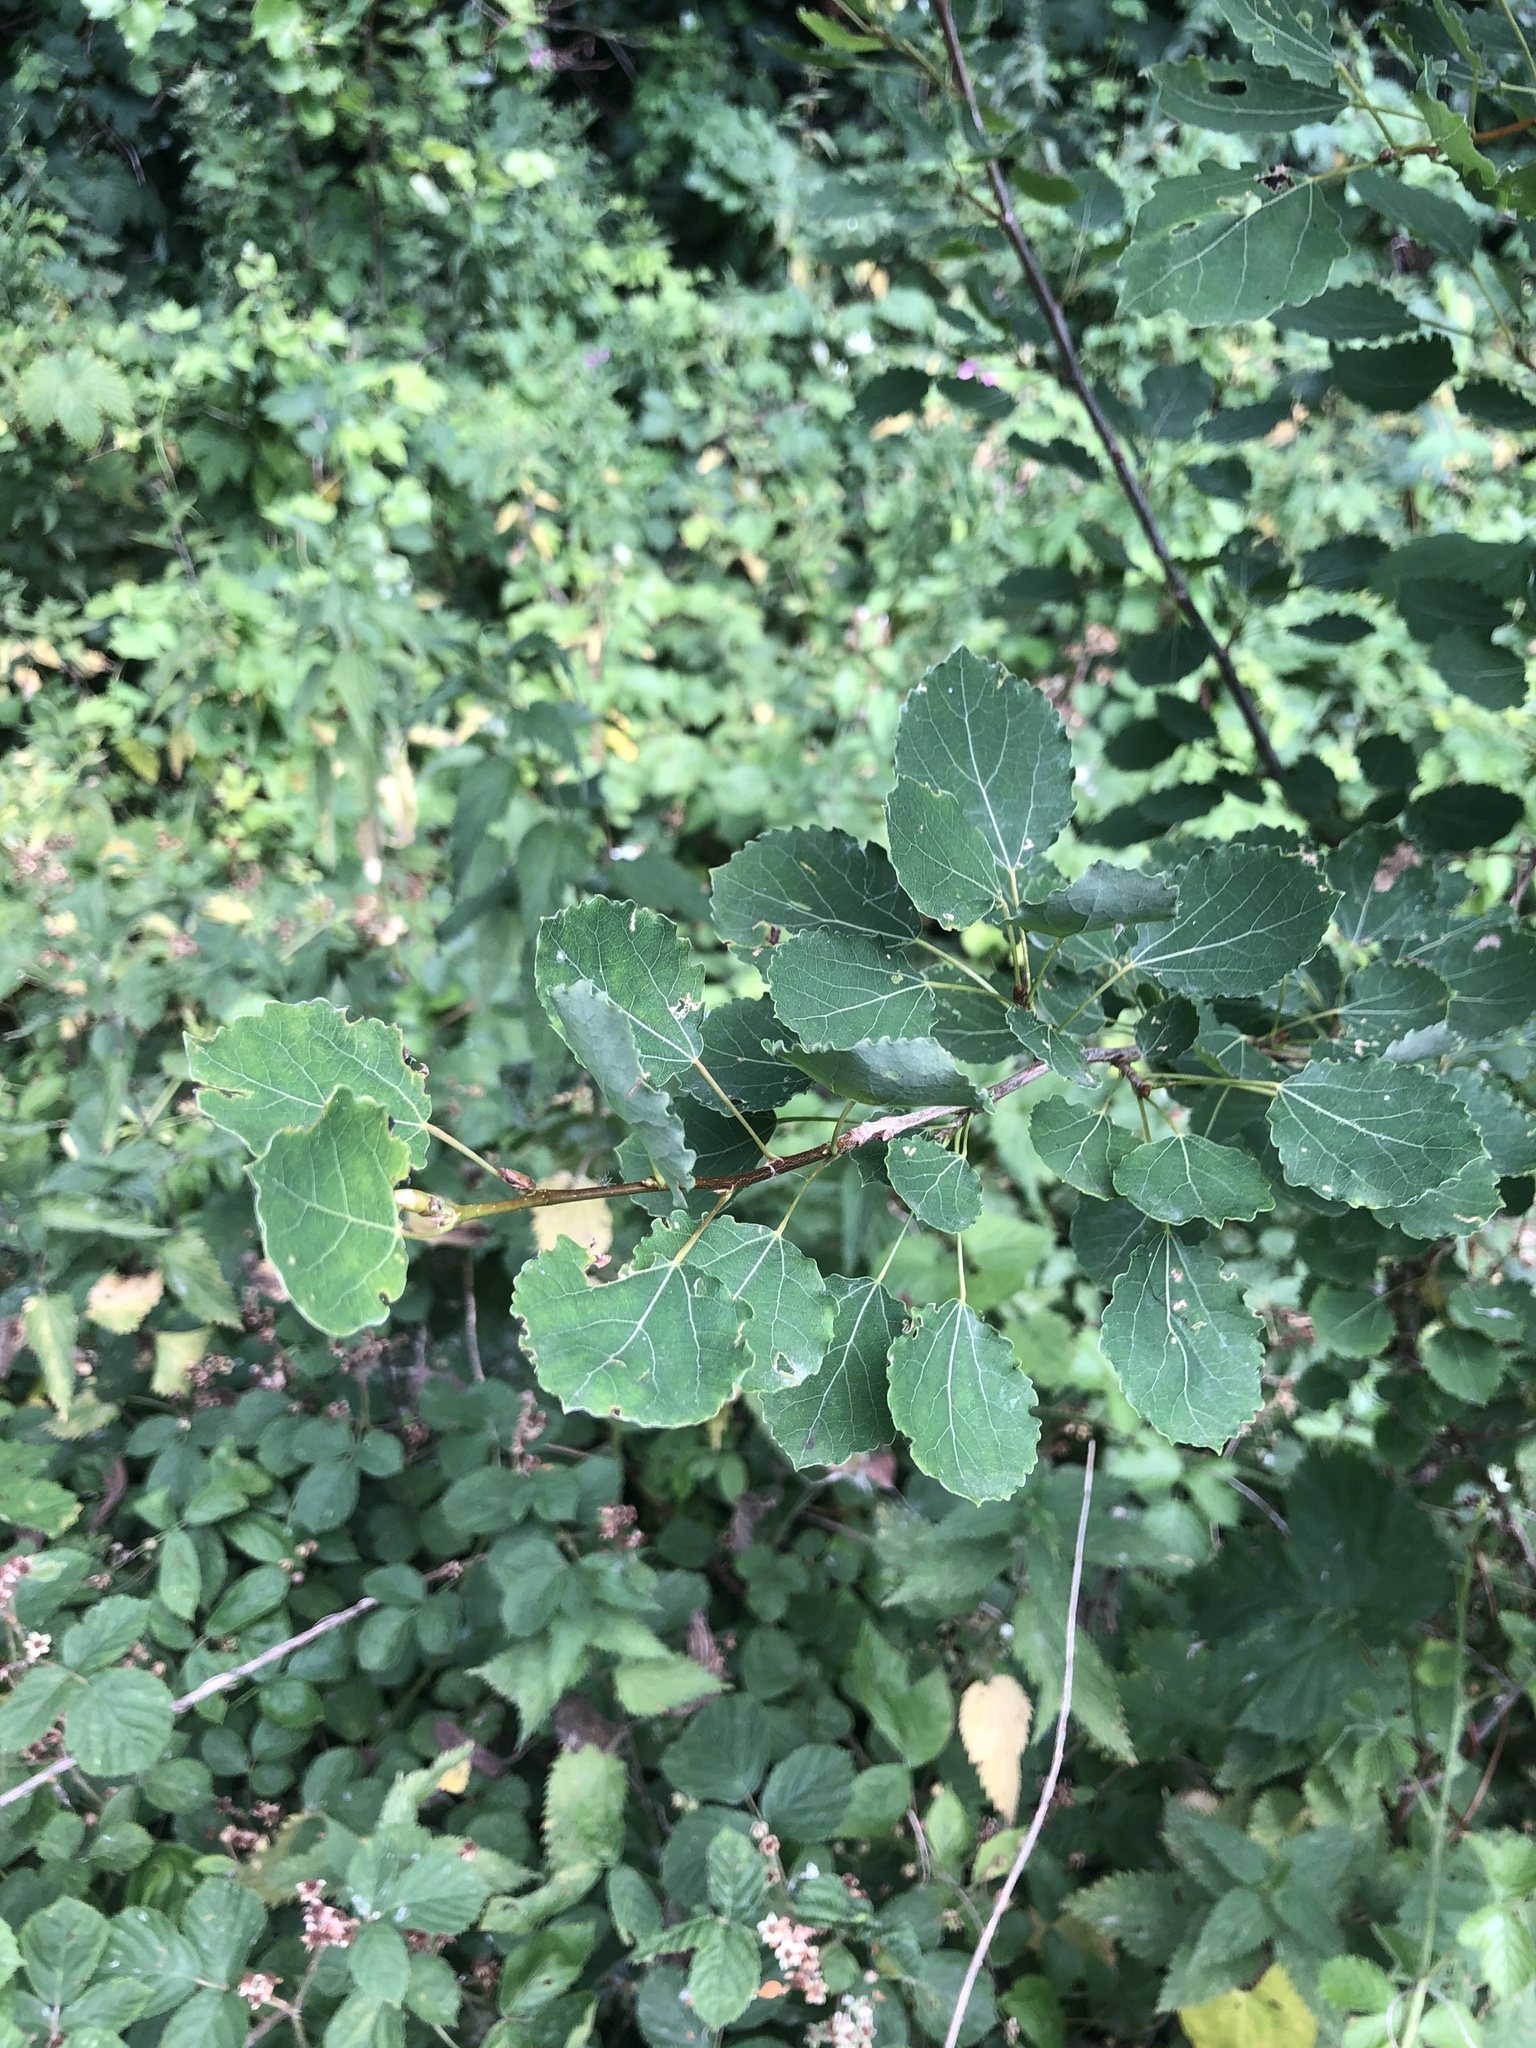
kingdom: Plantae
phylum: Tracheophyta
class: Magnoliopsida
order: Malpighiales
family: Salicaceae
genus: Populus
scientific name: Populus tremula
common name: European aspen
